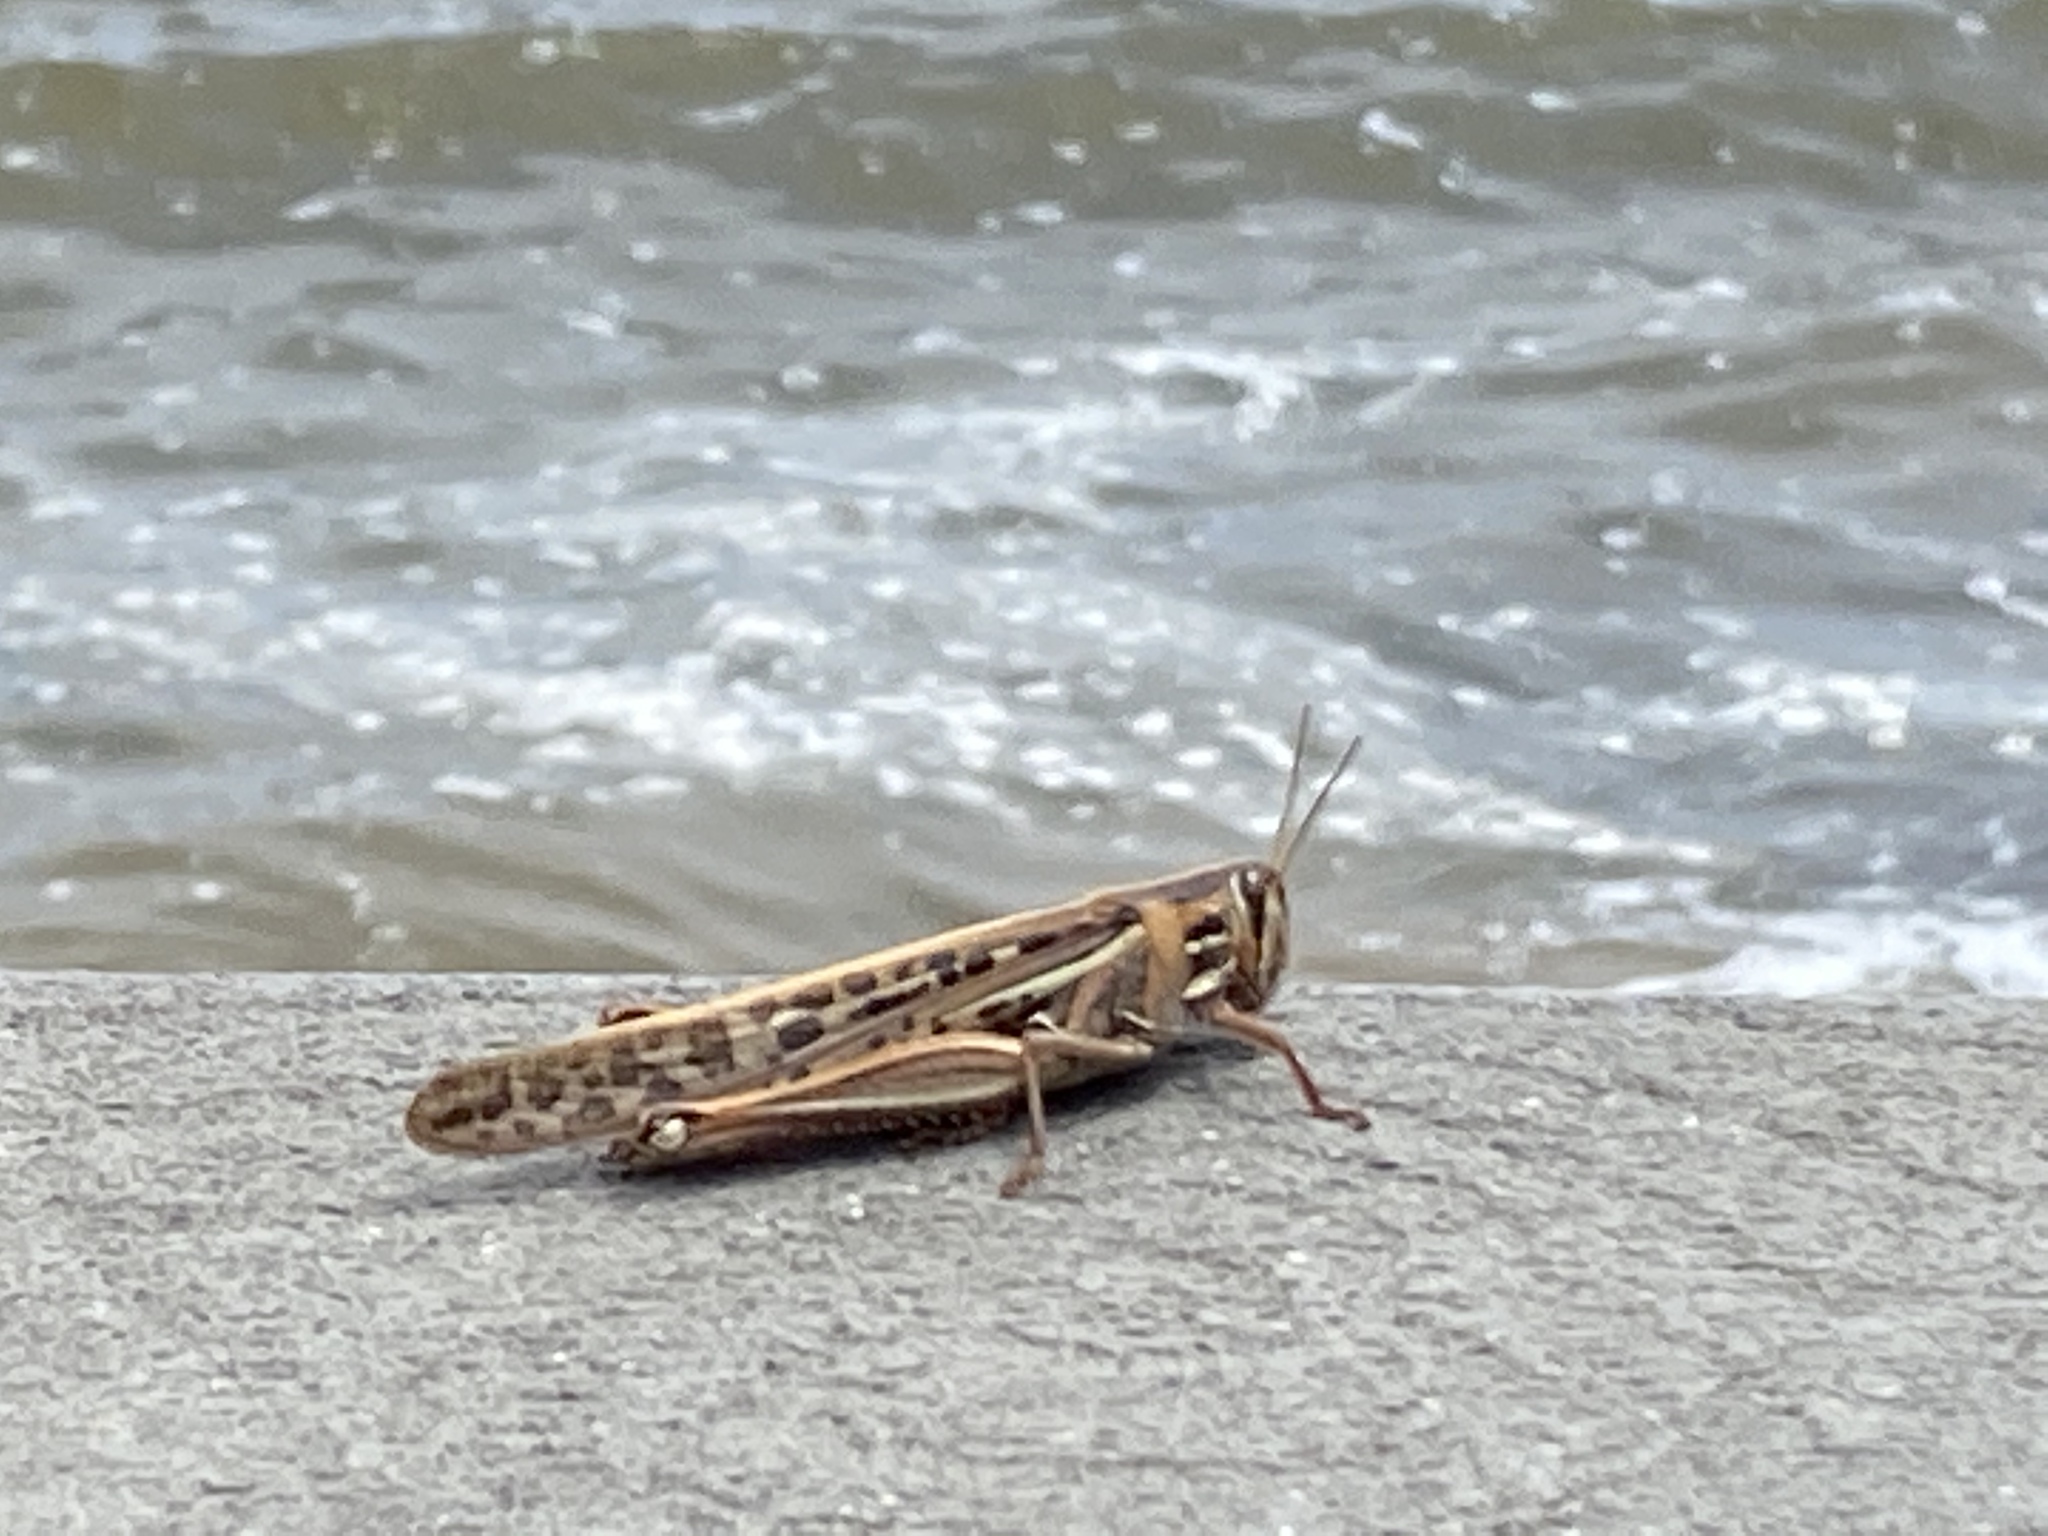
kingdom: Animalia
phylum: Arthropoda
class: Insecta
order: Orthoptera
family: Acrididae
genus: Schistocerca
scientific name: Schistocerca americana
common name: American bird locust
